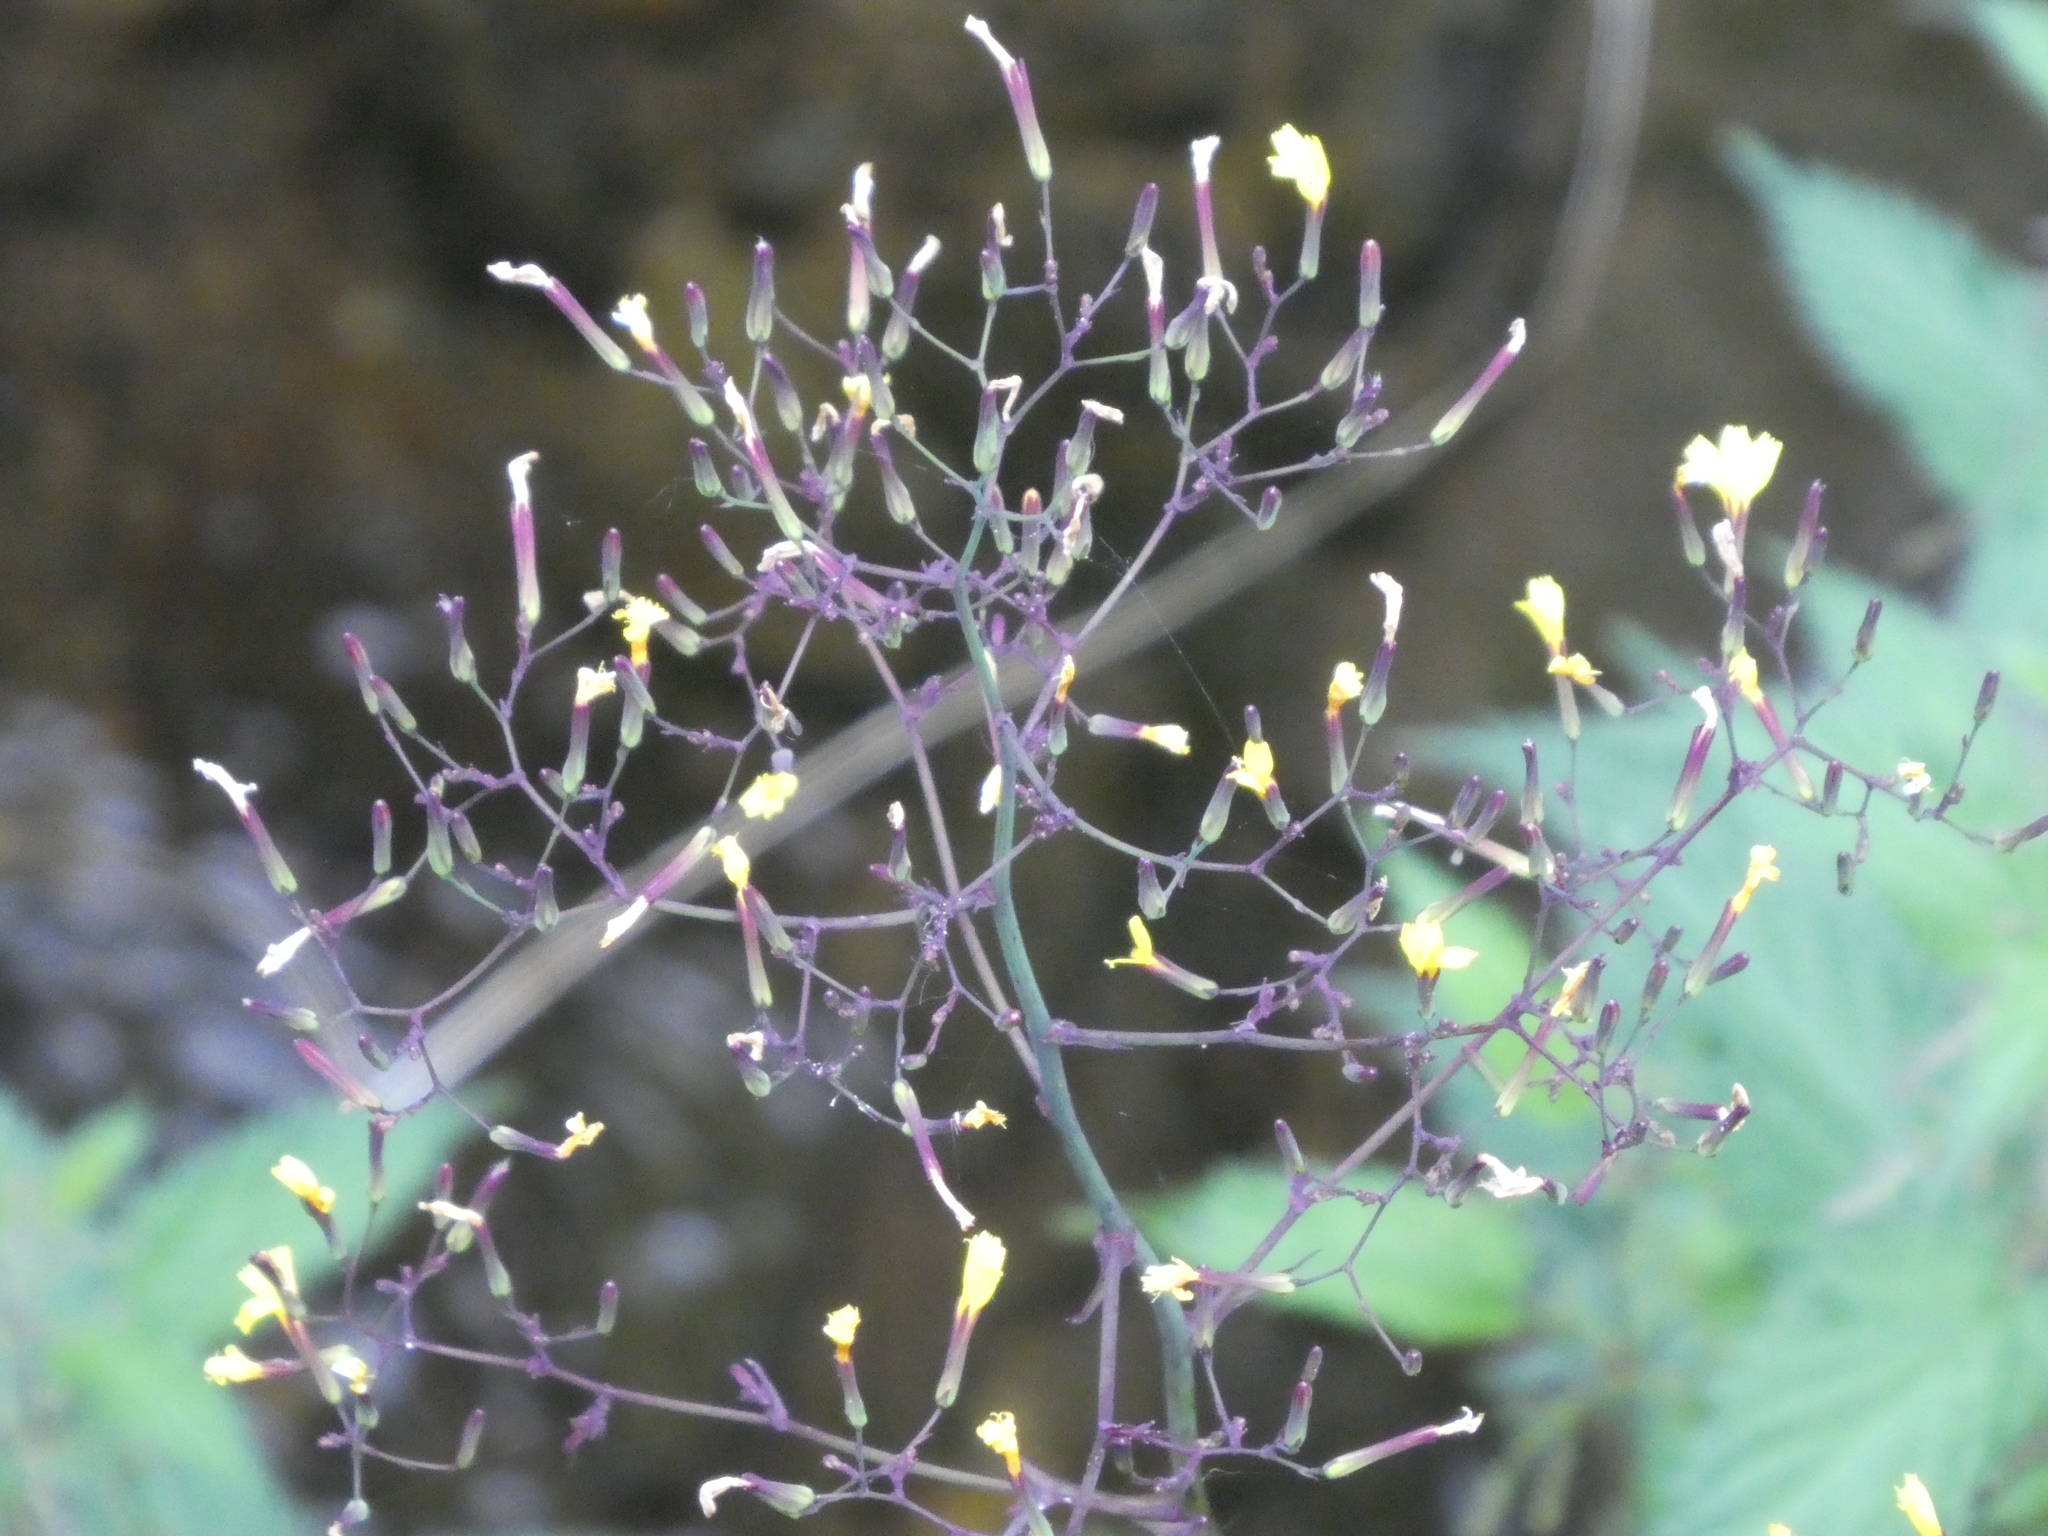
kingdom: Plantae
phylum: Tracheophyta
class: Magnoliopsida
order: Asterales
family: Asteraceae
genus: Mycelis
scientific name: Mycelis muralis
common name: Wall lettuce
